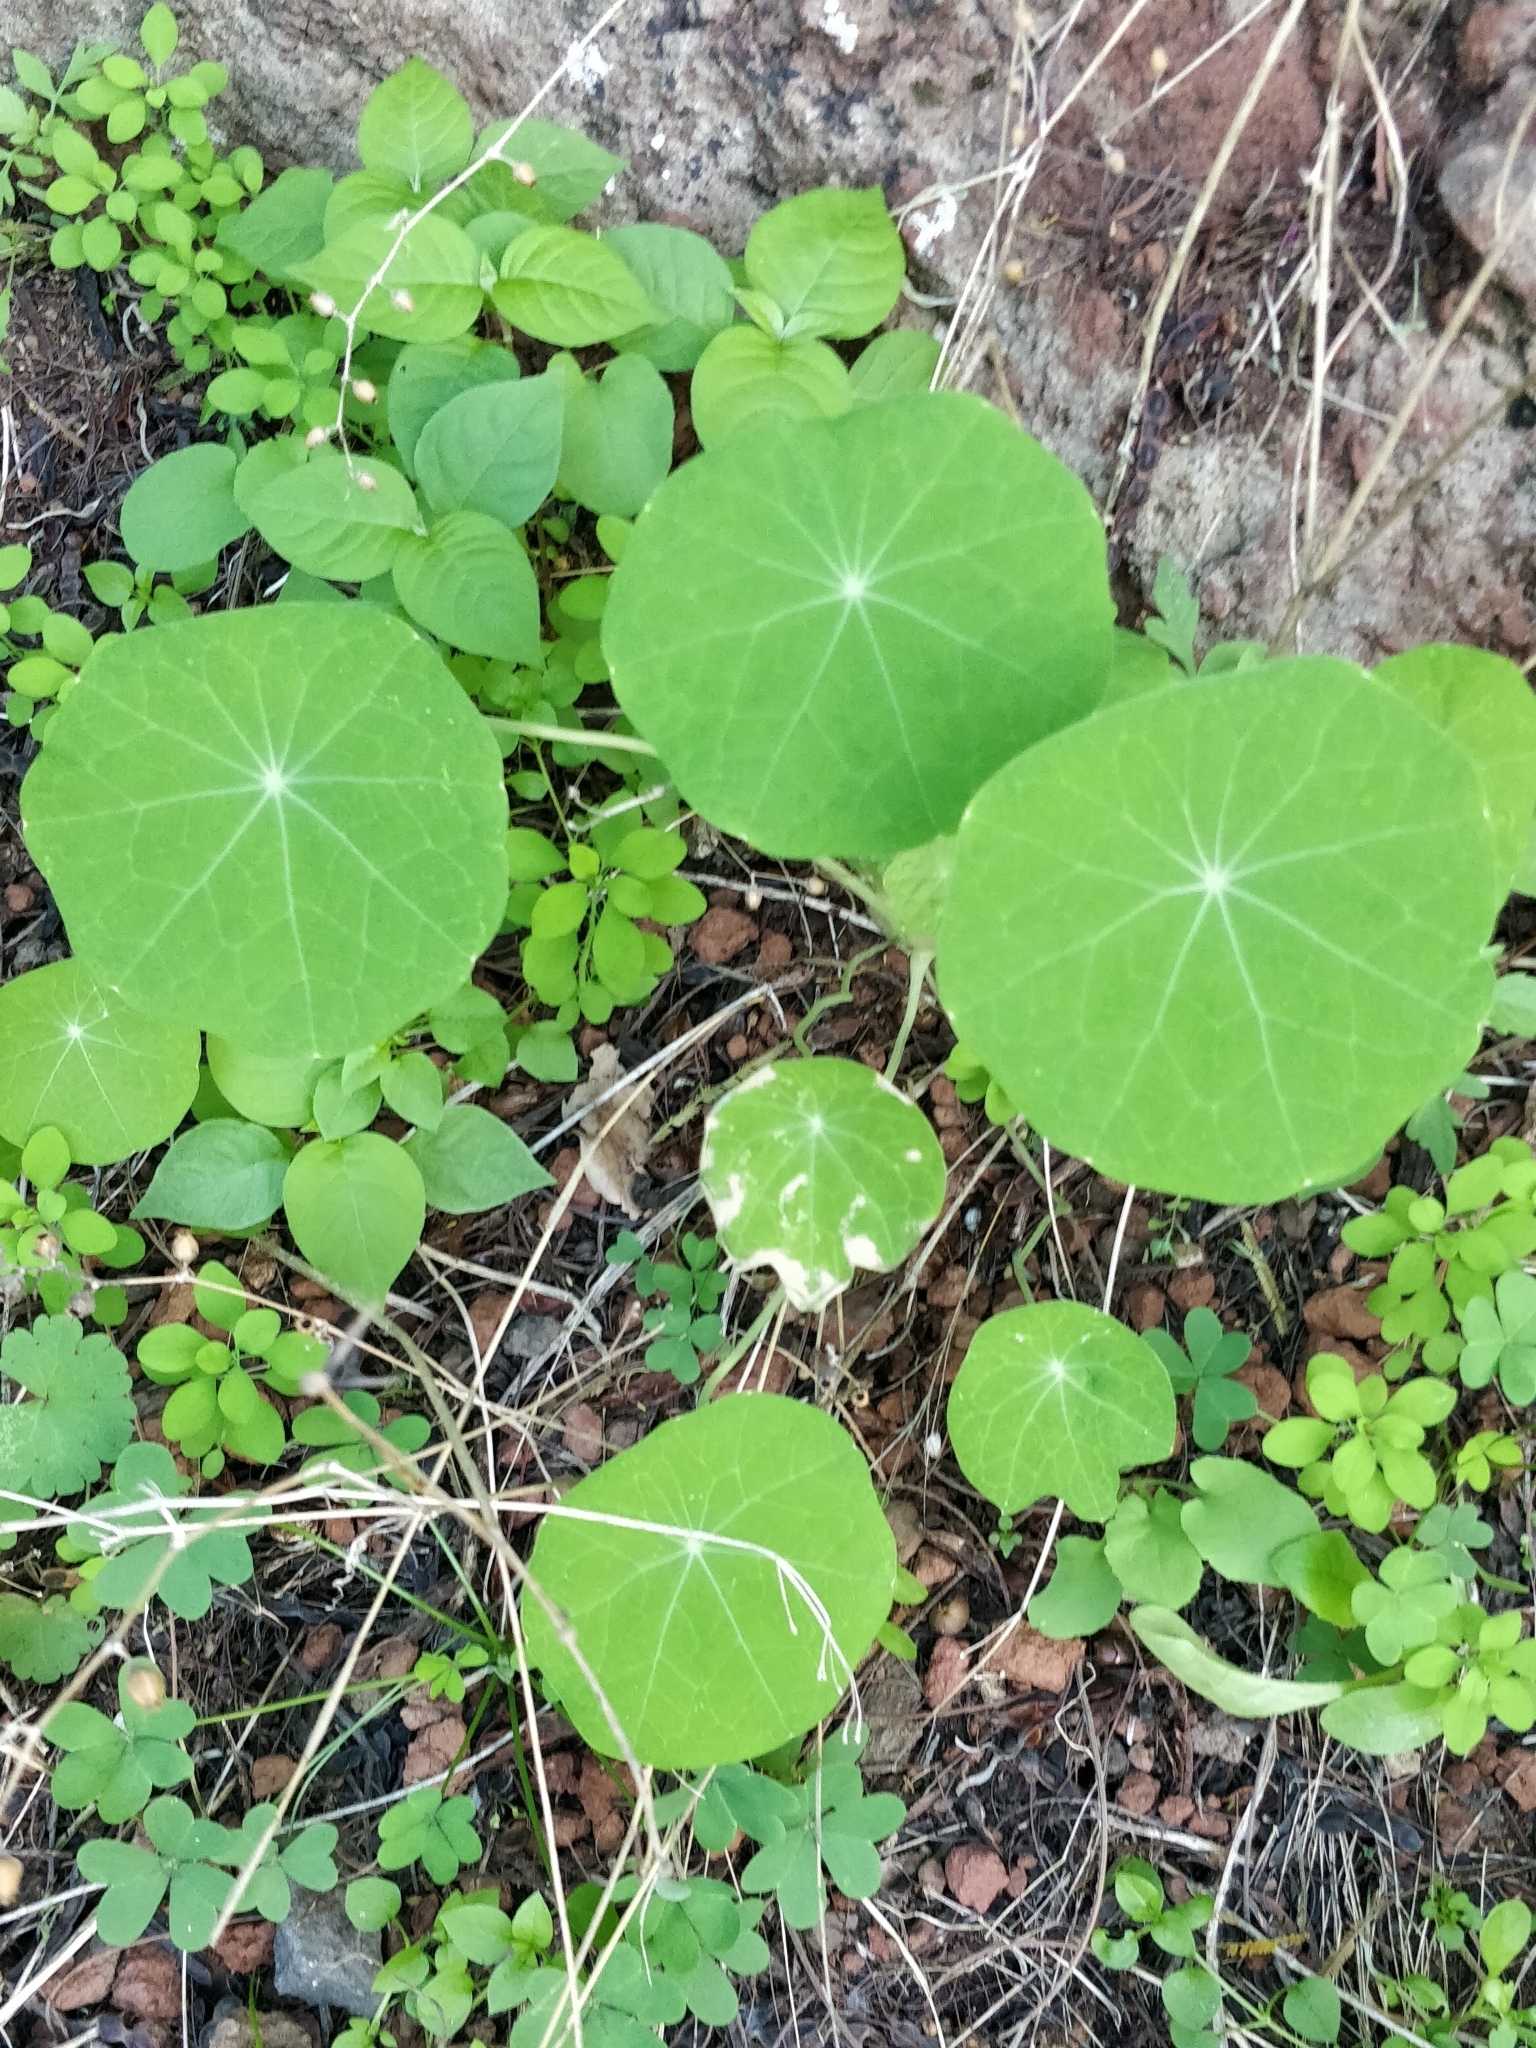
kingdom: Plantae
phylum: Tracheophyta
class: Magnoliopsida
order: Brassicales
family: Tropaeolaceae
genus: Tropaeolum
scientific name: Tropaeolum majus
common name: Nasturtium
